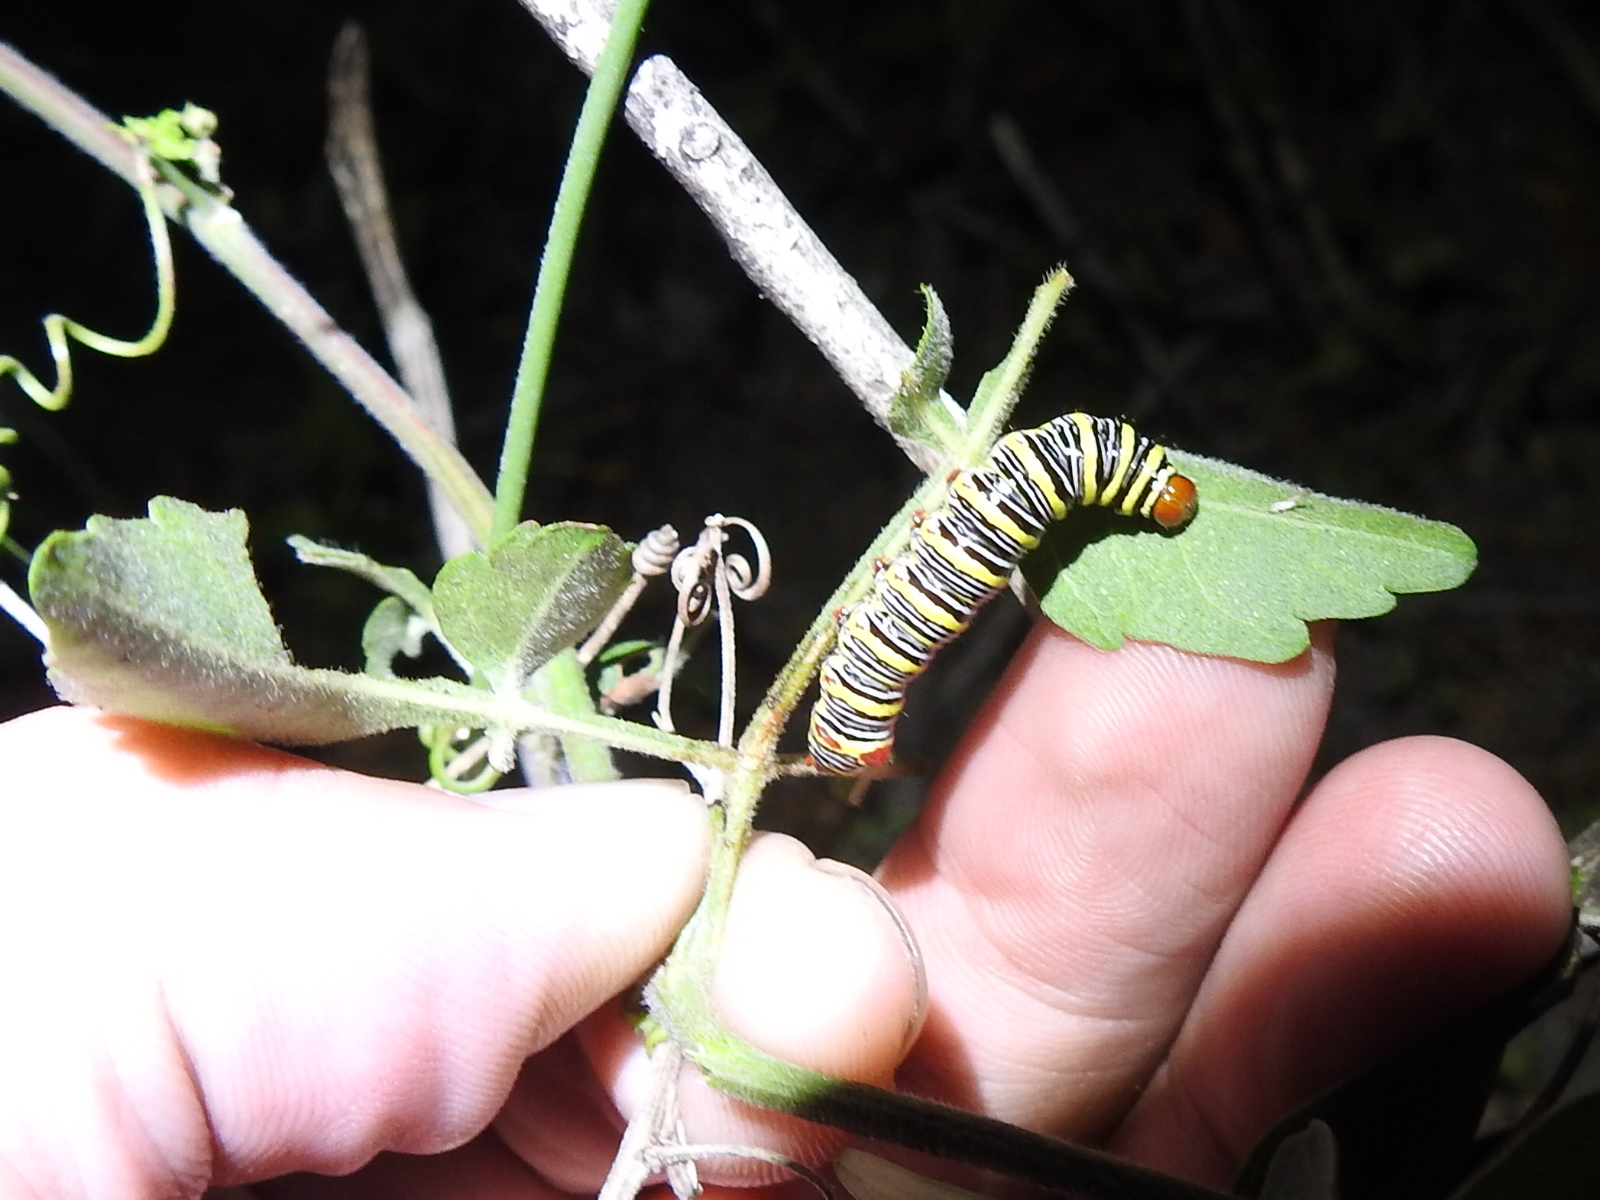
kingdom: Animalia
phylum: Arthropoda
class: Insecta
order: Lepidoptera
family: Notodontidae
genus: Didugua
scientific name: Didugua argentilinea
